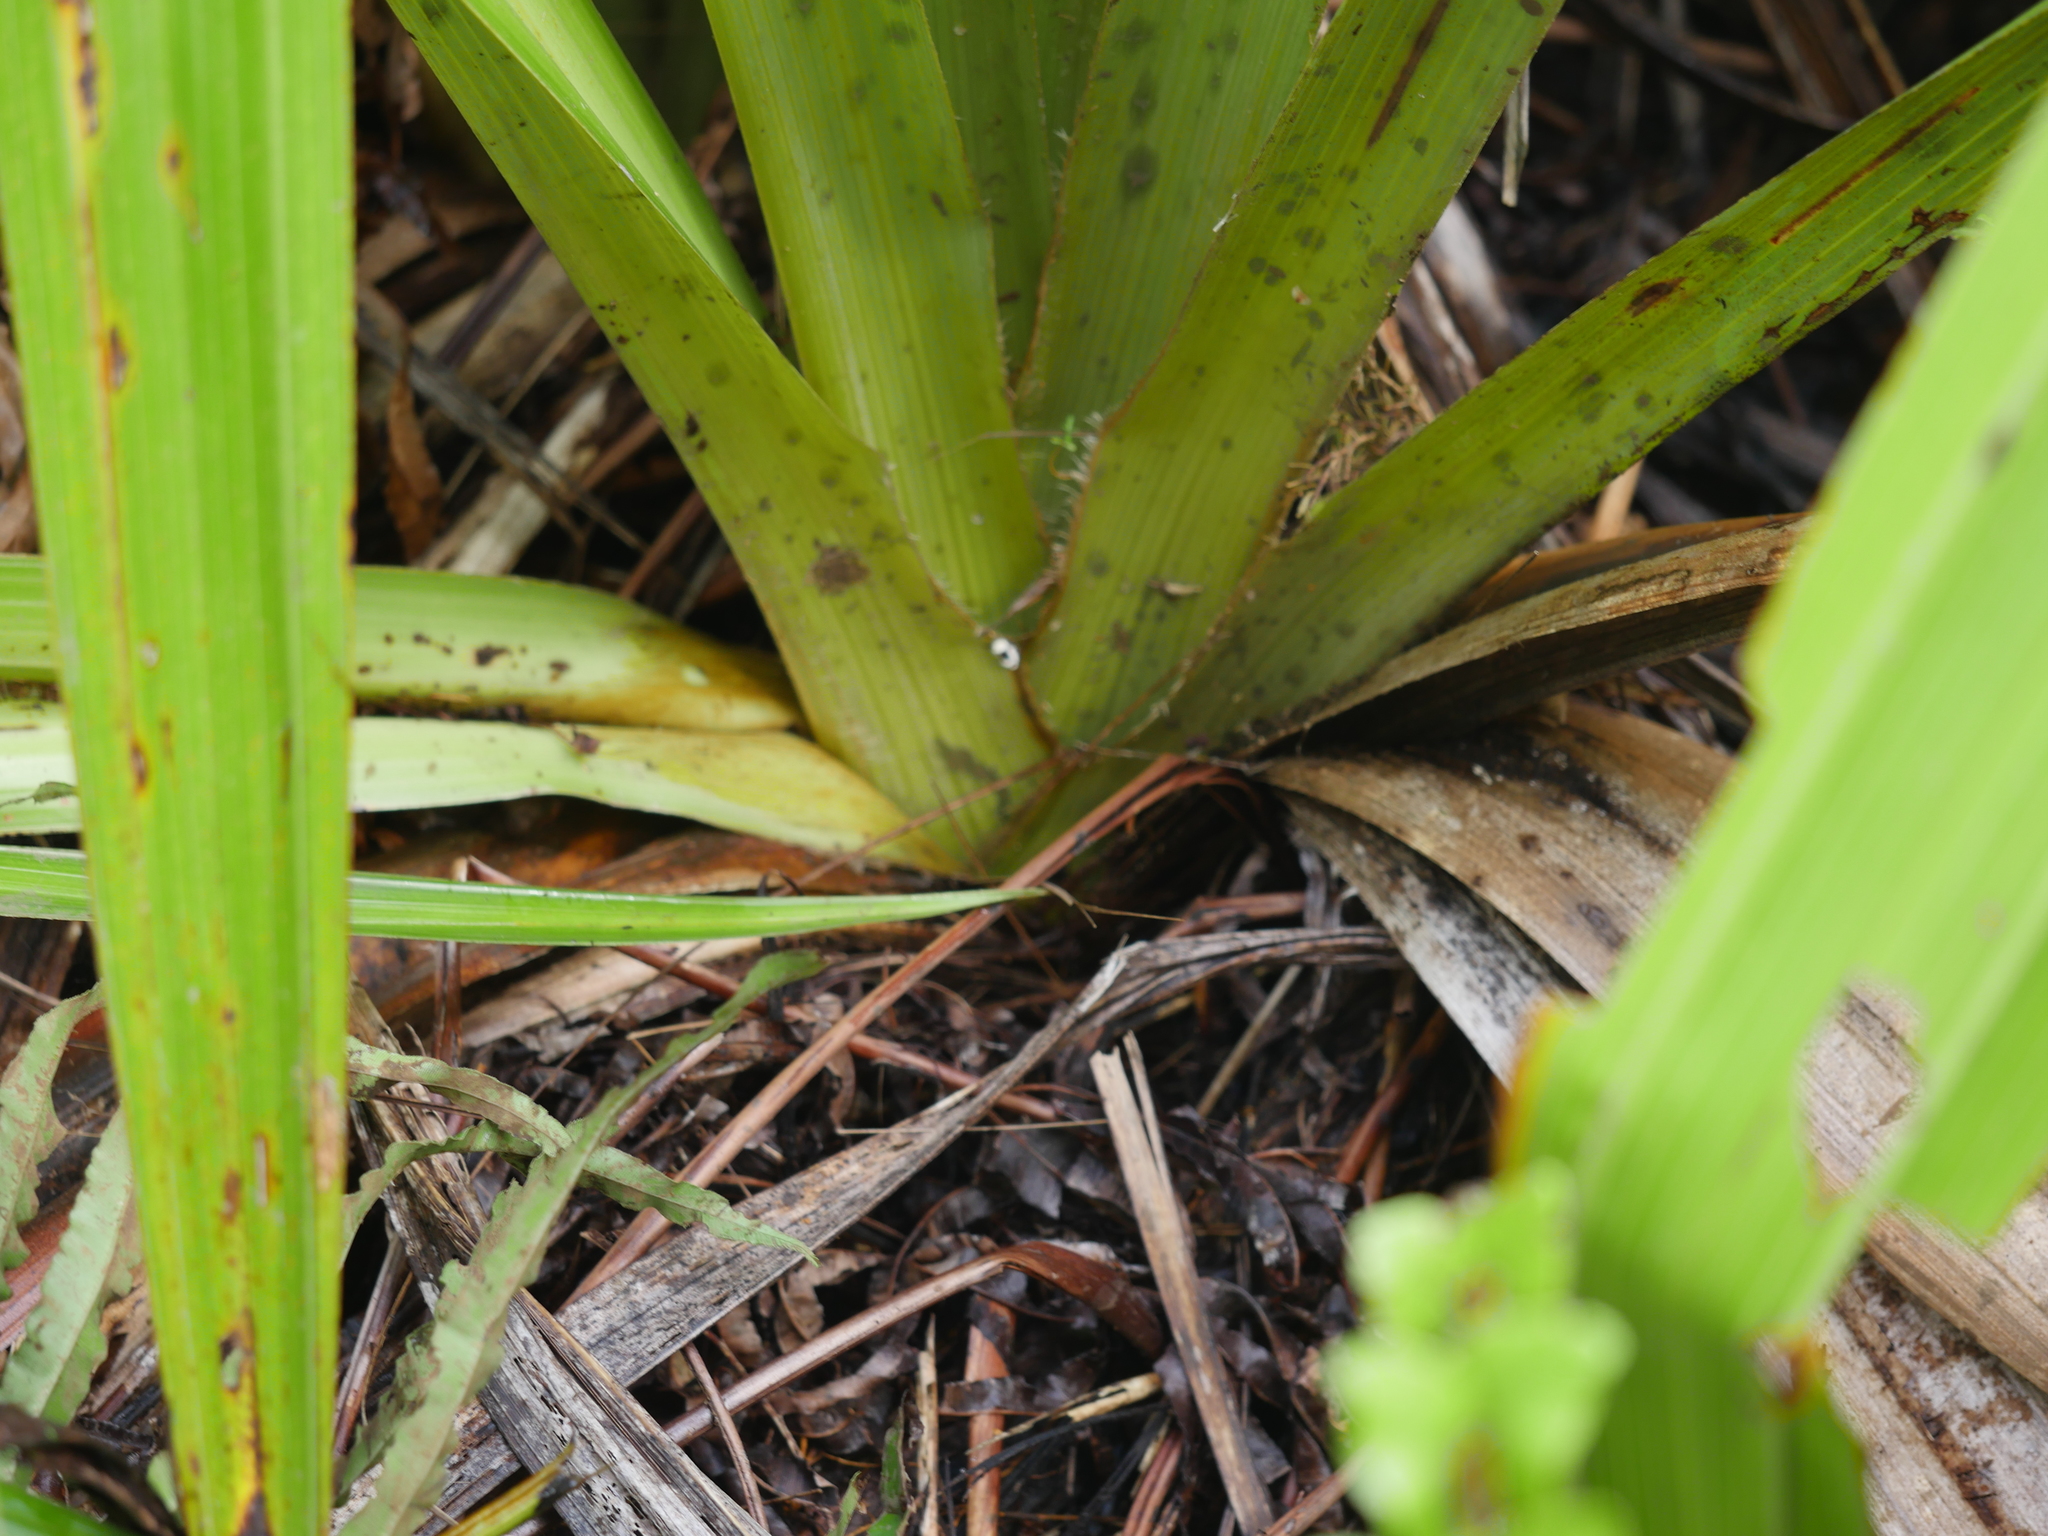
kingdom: Plantae
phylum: Tracheophyta
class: Liliopsida
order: Asparagales
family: Asteliaceae
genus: Astelia
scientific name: Astelia grandis
